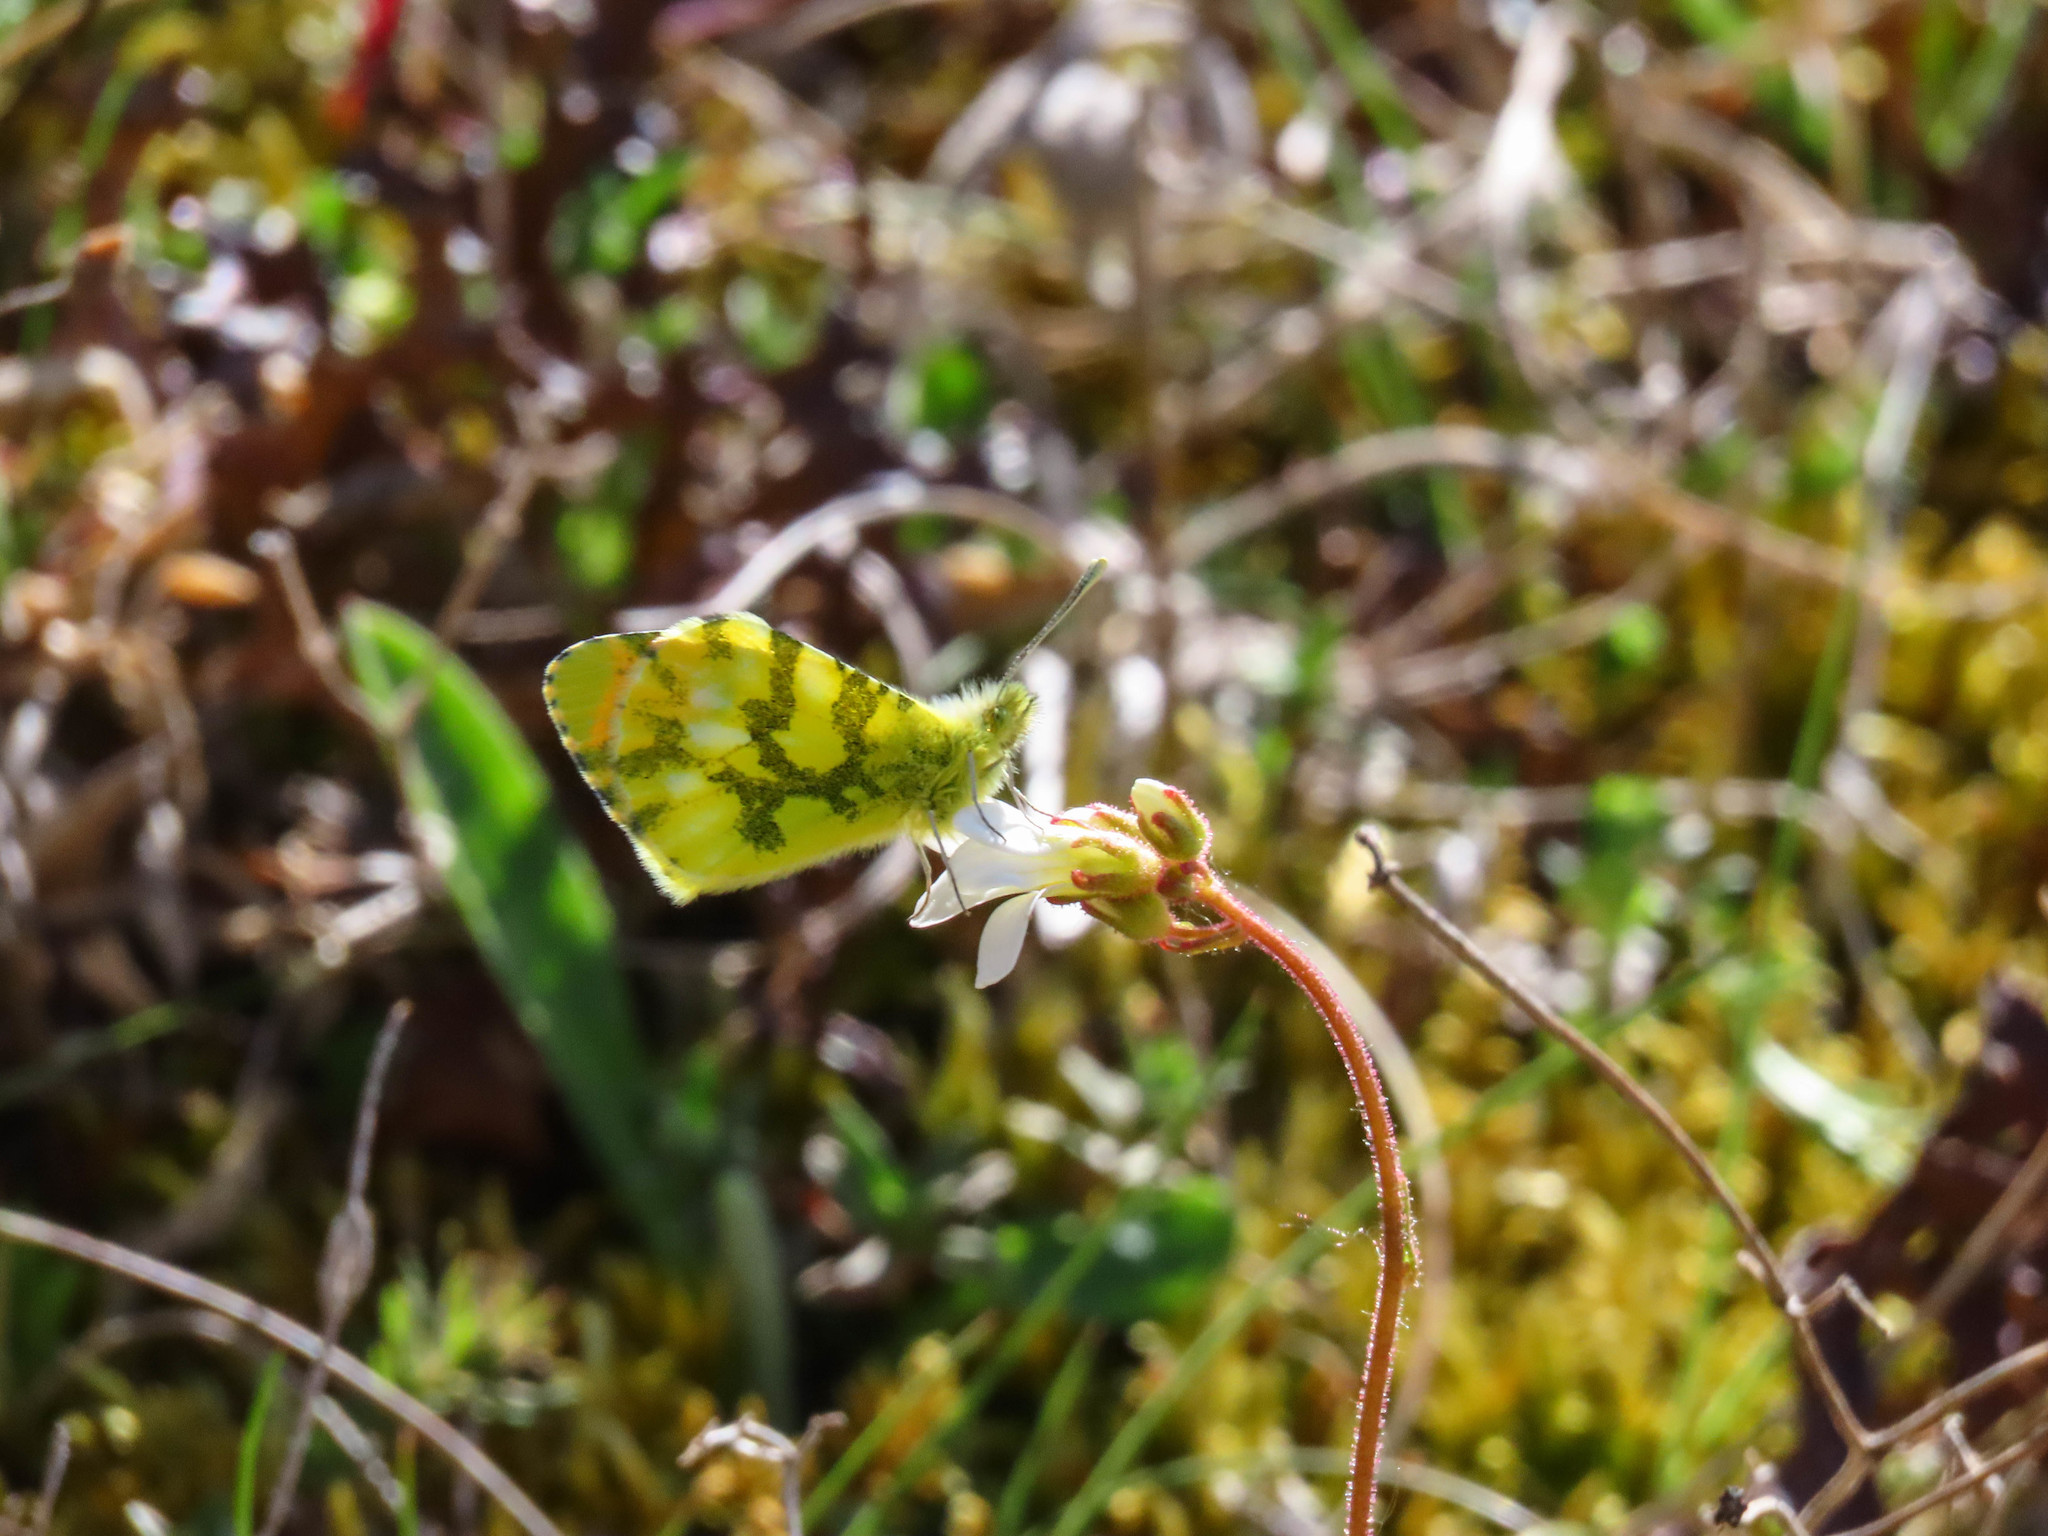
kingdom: Animalia
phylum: Arthropoda
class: Insecta
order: Lepidoptera
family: Pieridae
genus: Anthocharis
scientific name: Anthocharis euphenoides
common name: Provence orange-tip
